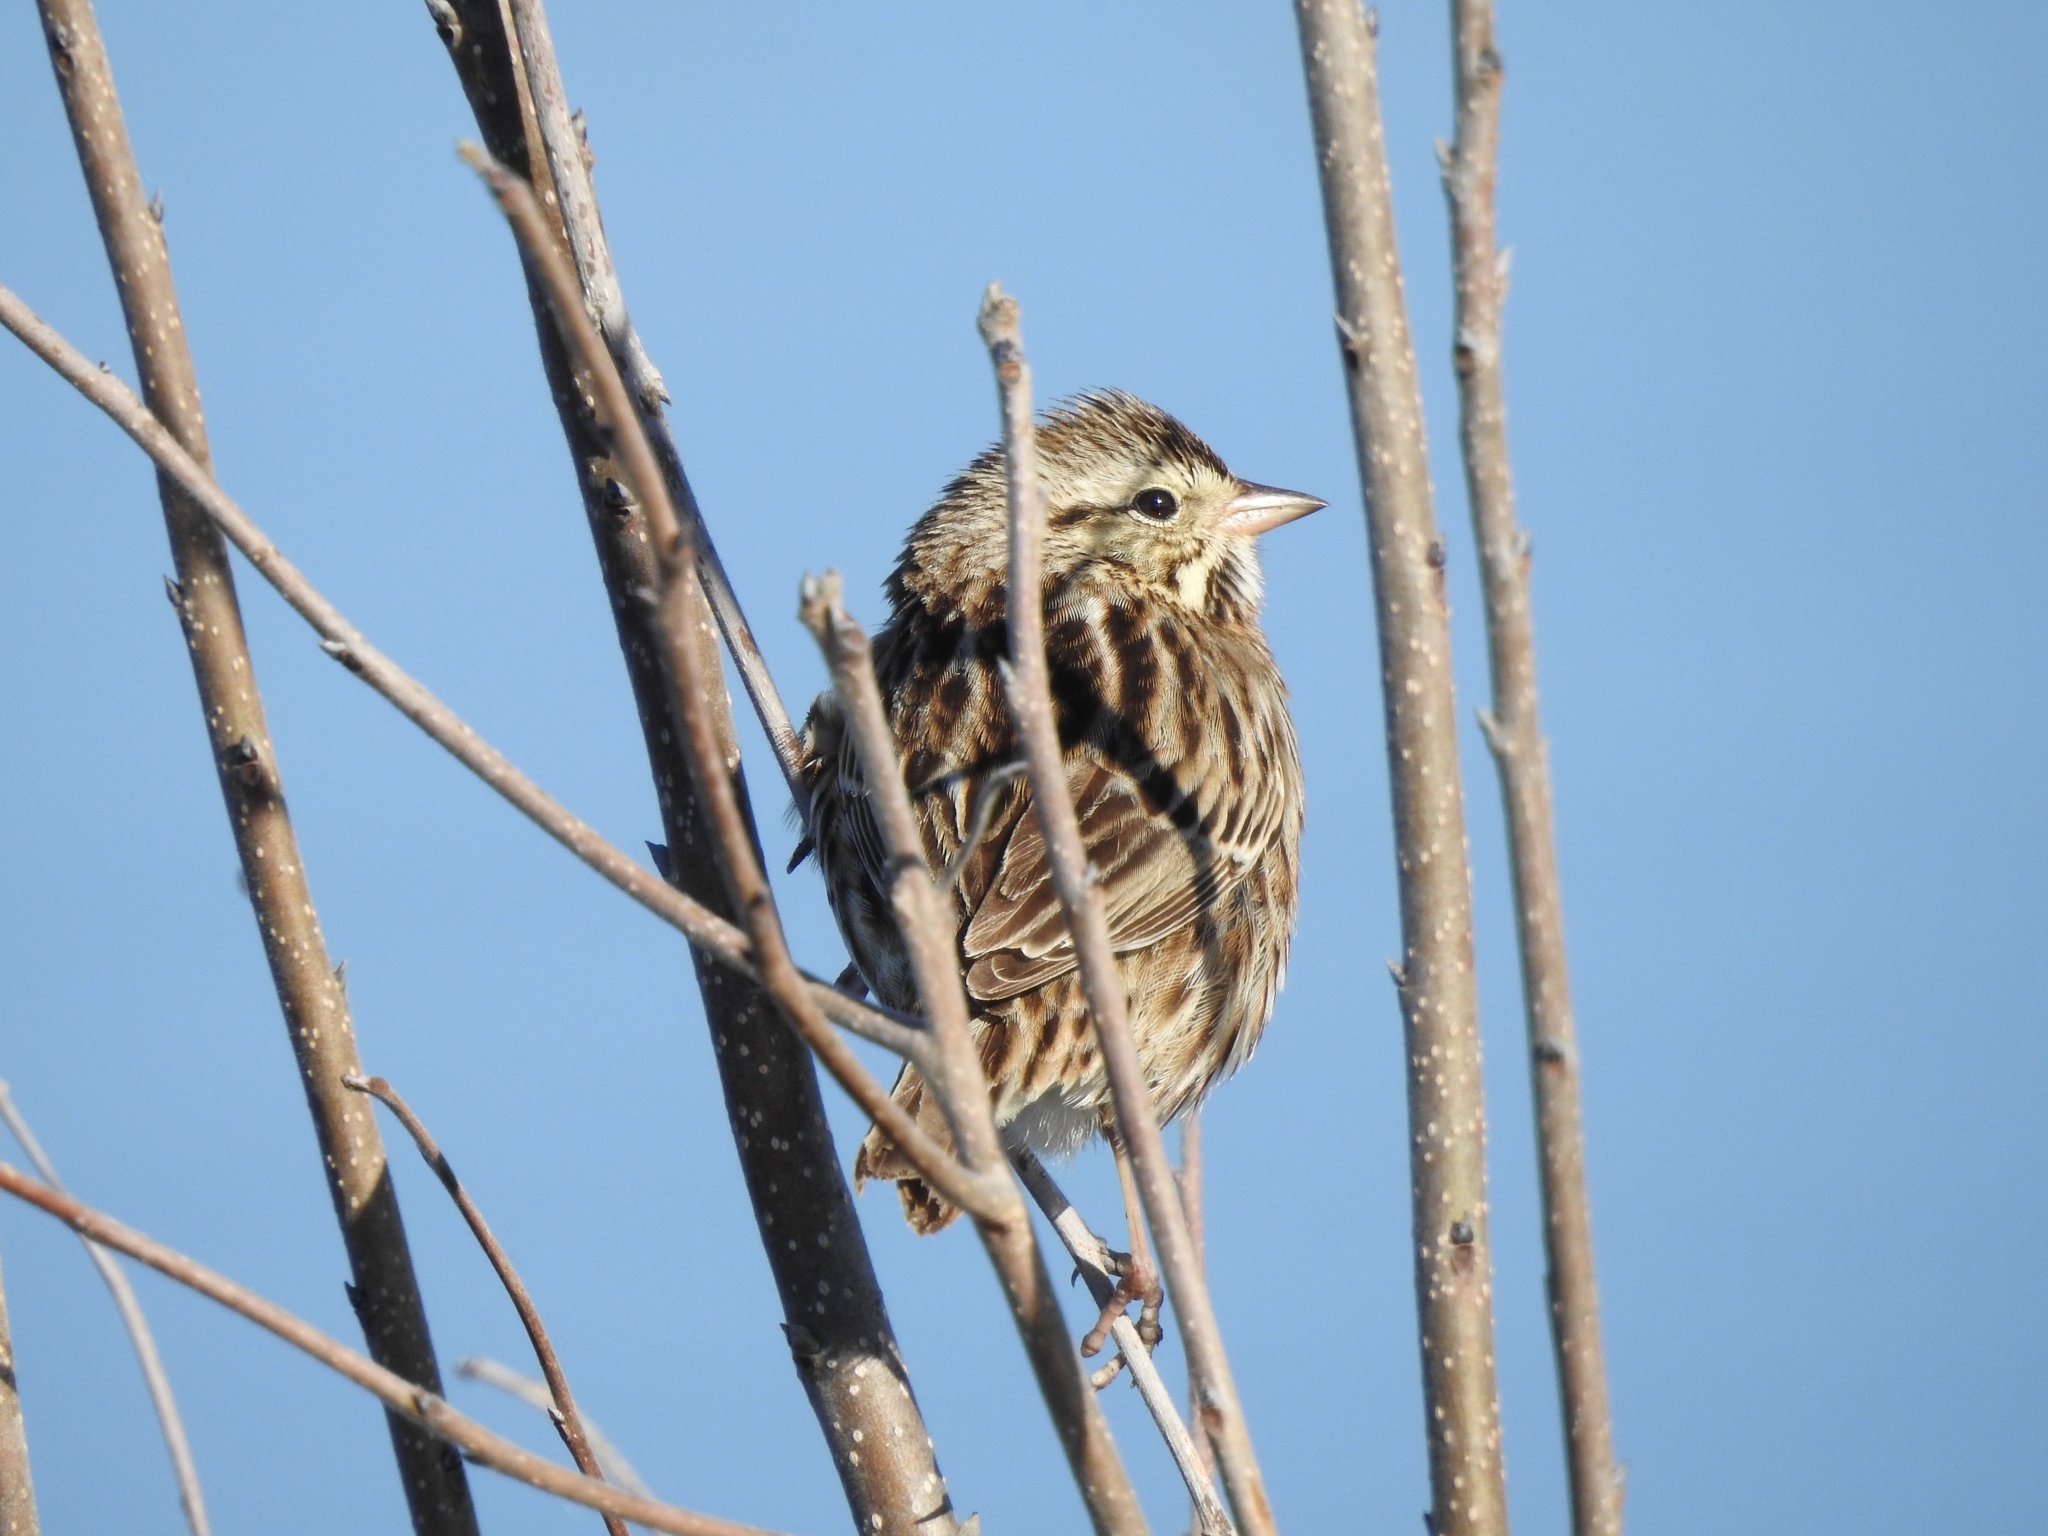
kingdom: Animalia
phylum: Chordata
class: Aves
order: Passeriformes
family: Passerellidae
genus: Passerculus
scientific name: Passerculus sandwichensis
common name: Savannah sparrow
